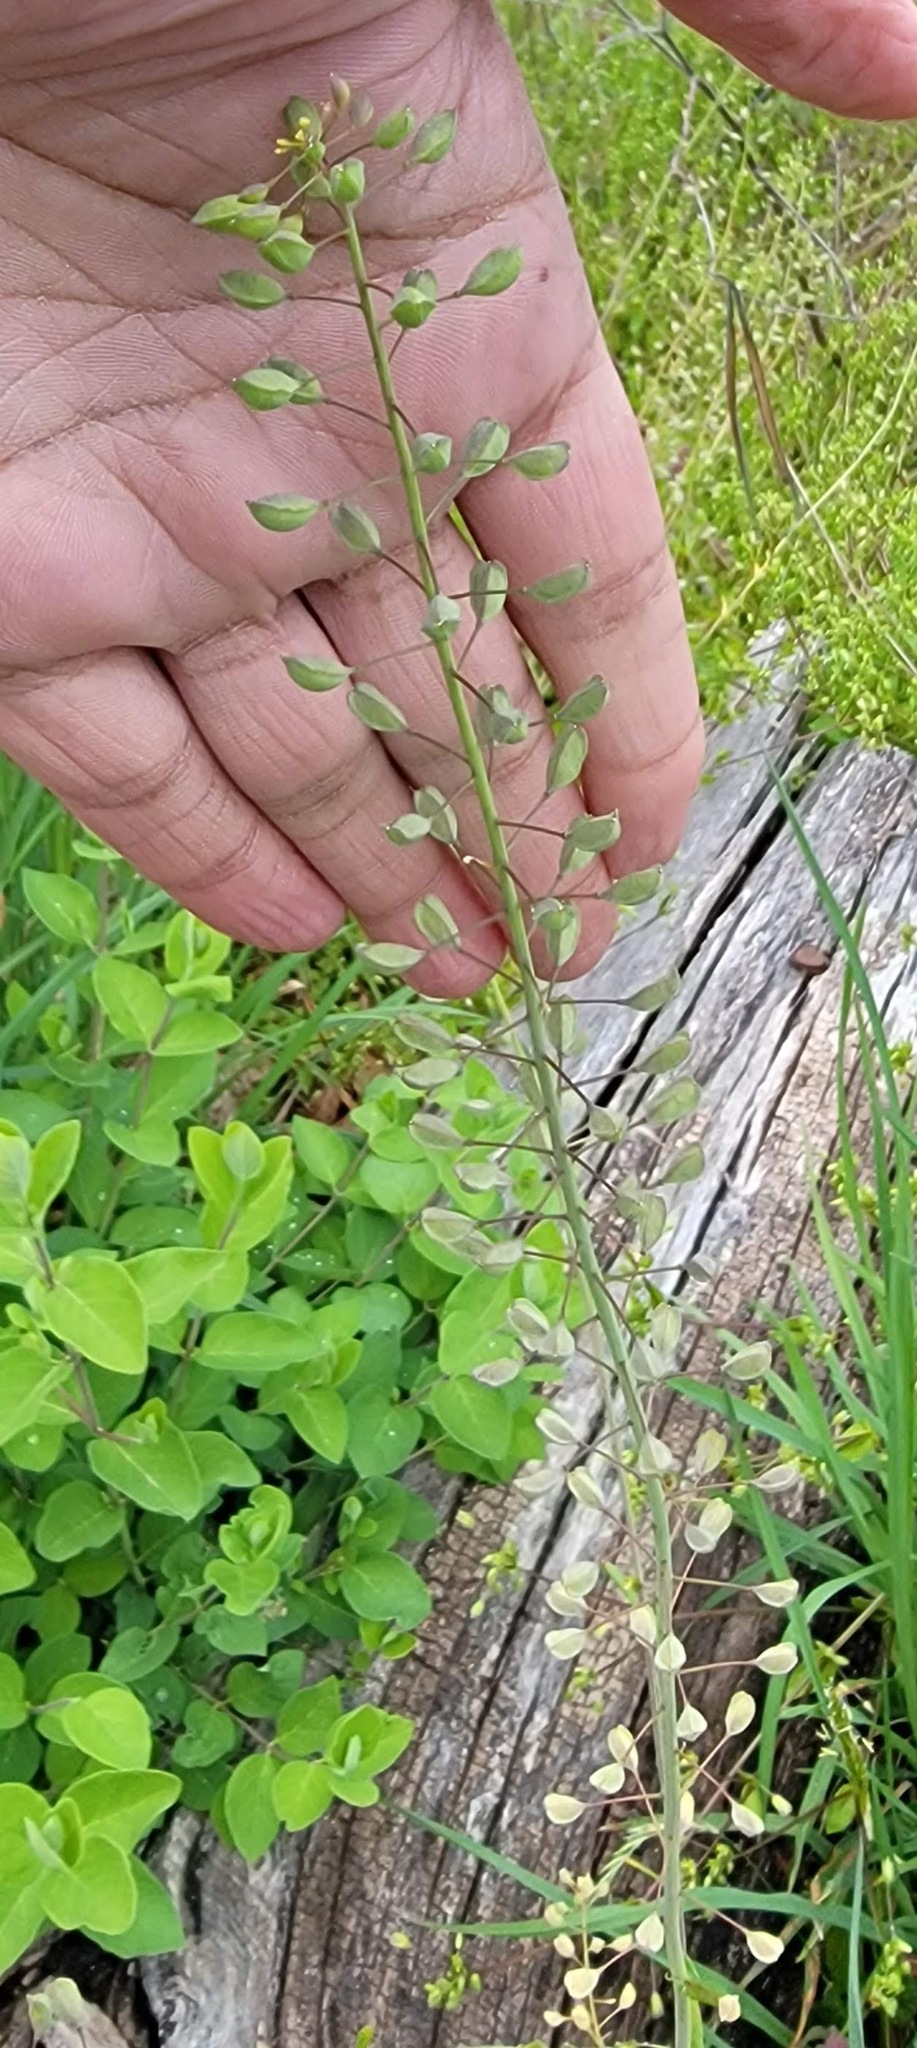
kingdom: Plantae
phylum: Tracheophyta
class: Magnoliopsida
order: Brassicales
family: Brassicaceae
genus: Mummenhoffia
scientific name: Mummenhoffia alliacea
